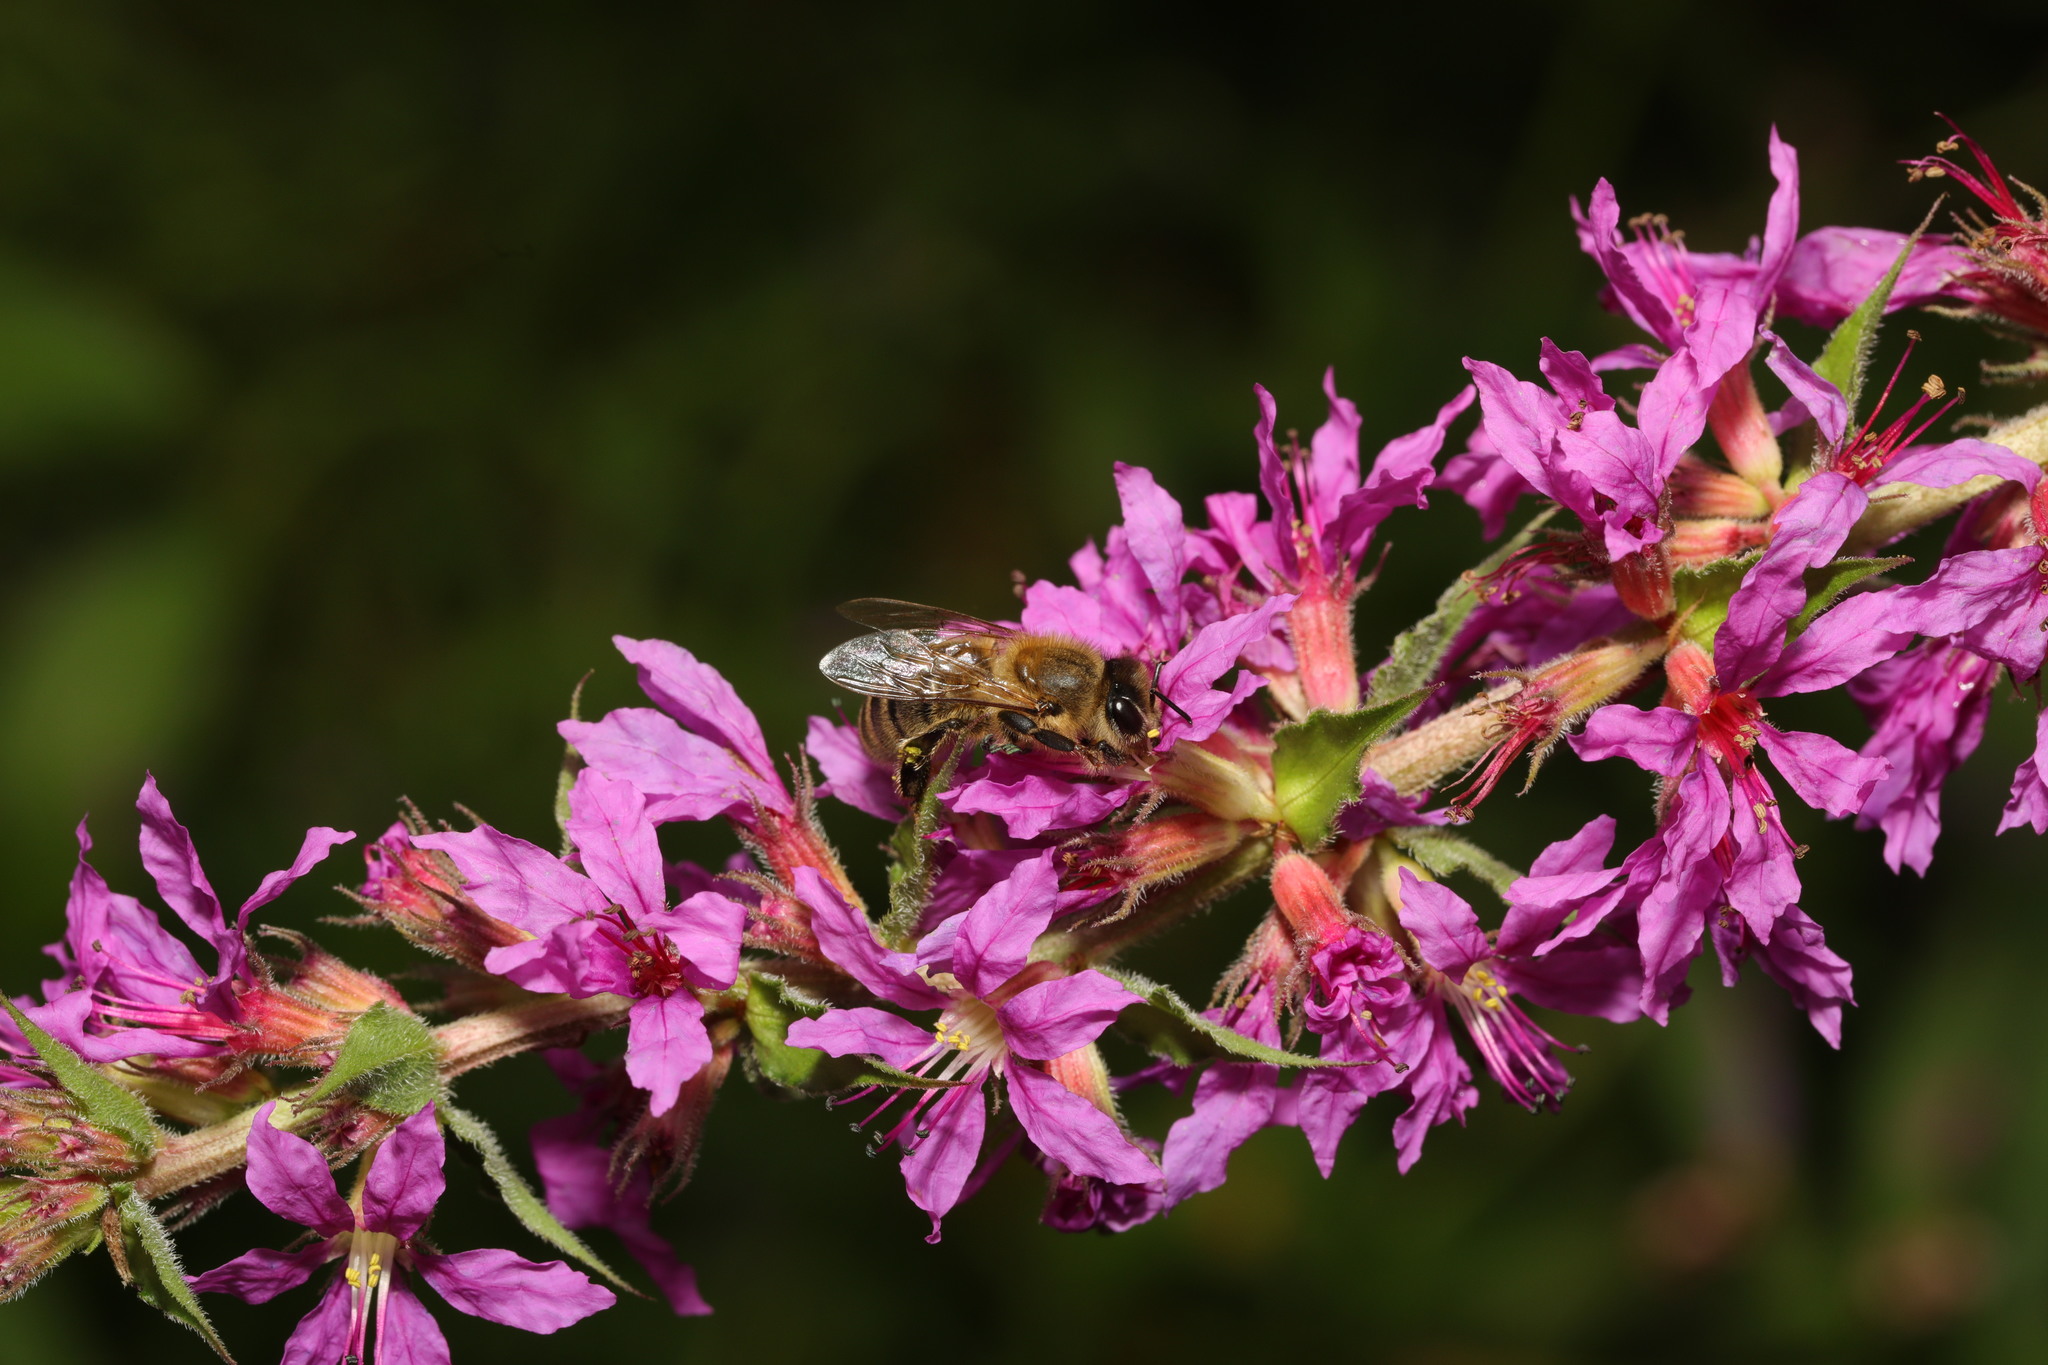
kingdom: Animalia
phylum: Arthropoda
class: Insecta
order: Hymenoptera
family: Apidae
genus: Apis
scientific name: Apis mellifera
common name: Honey bee
